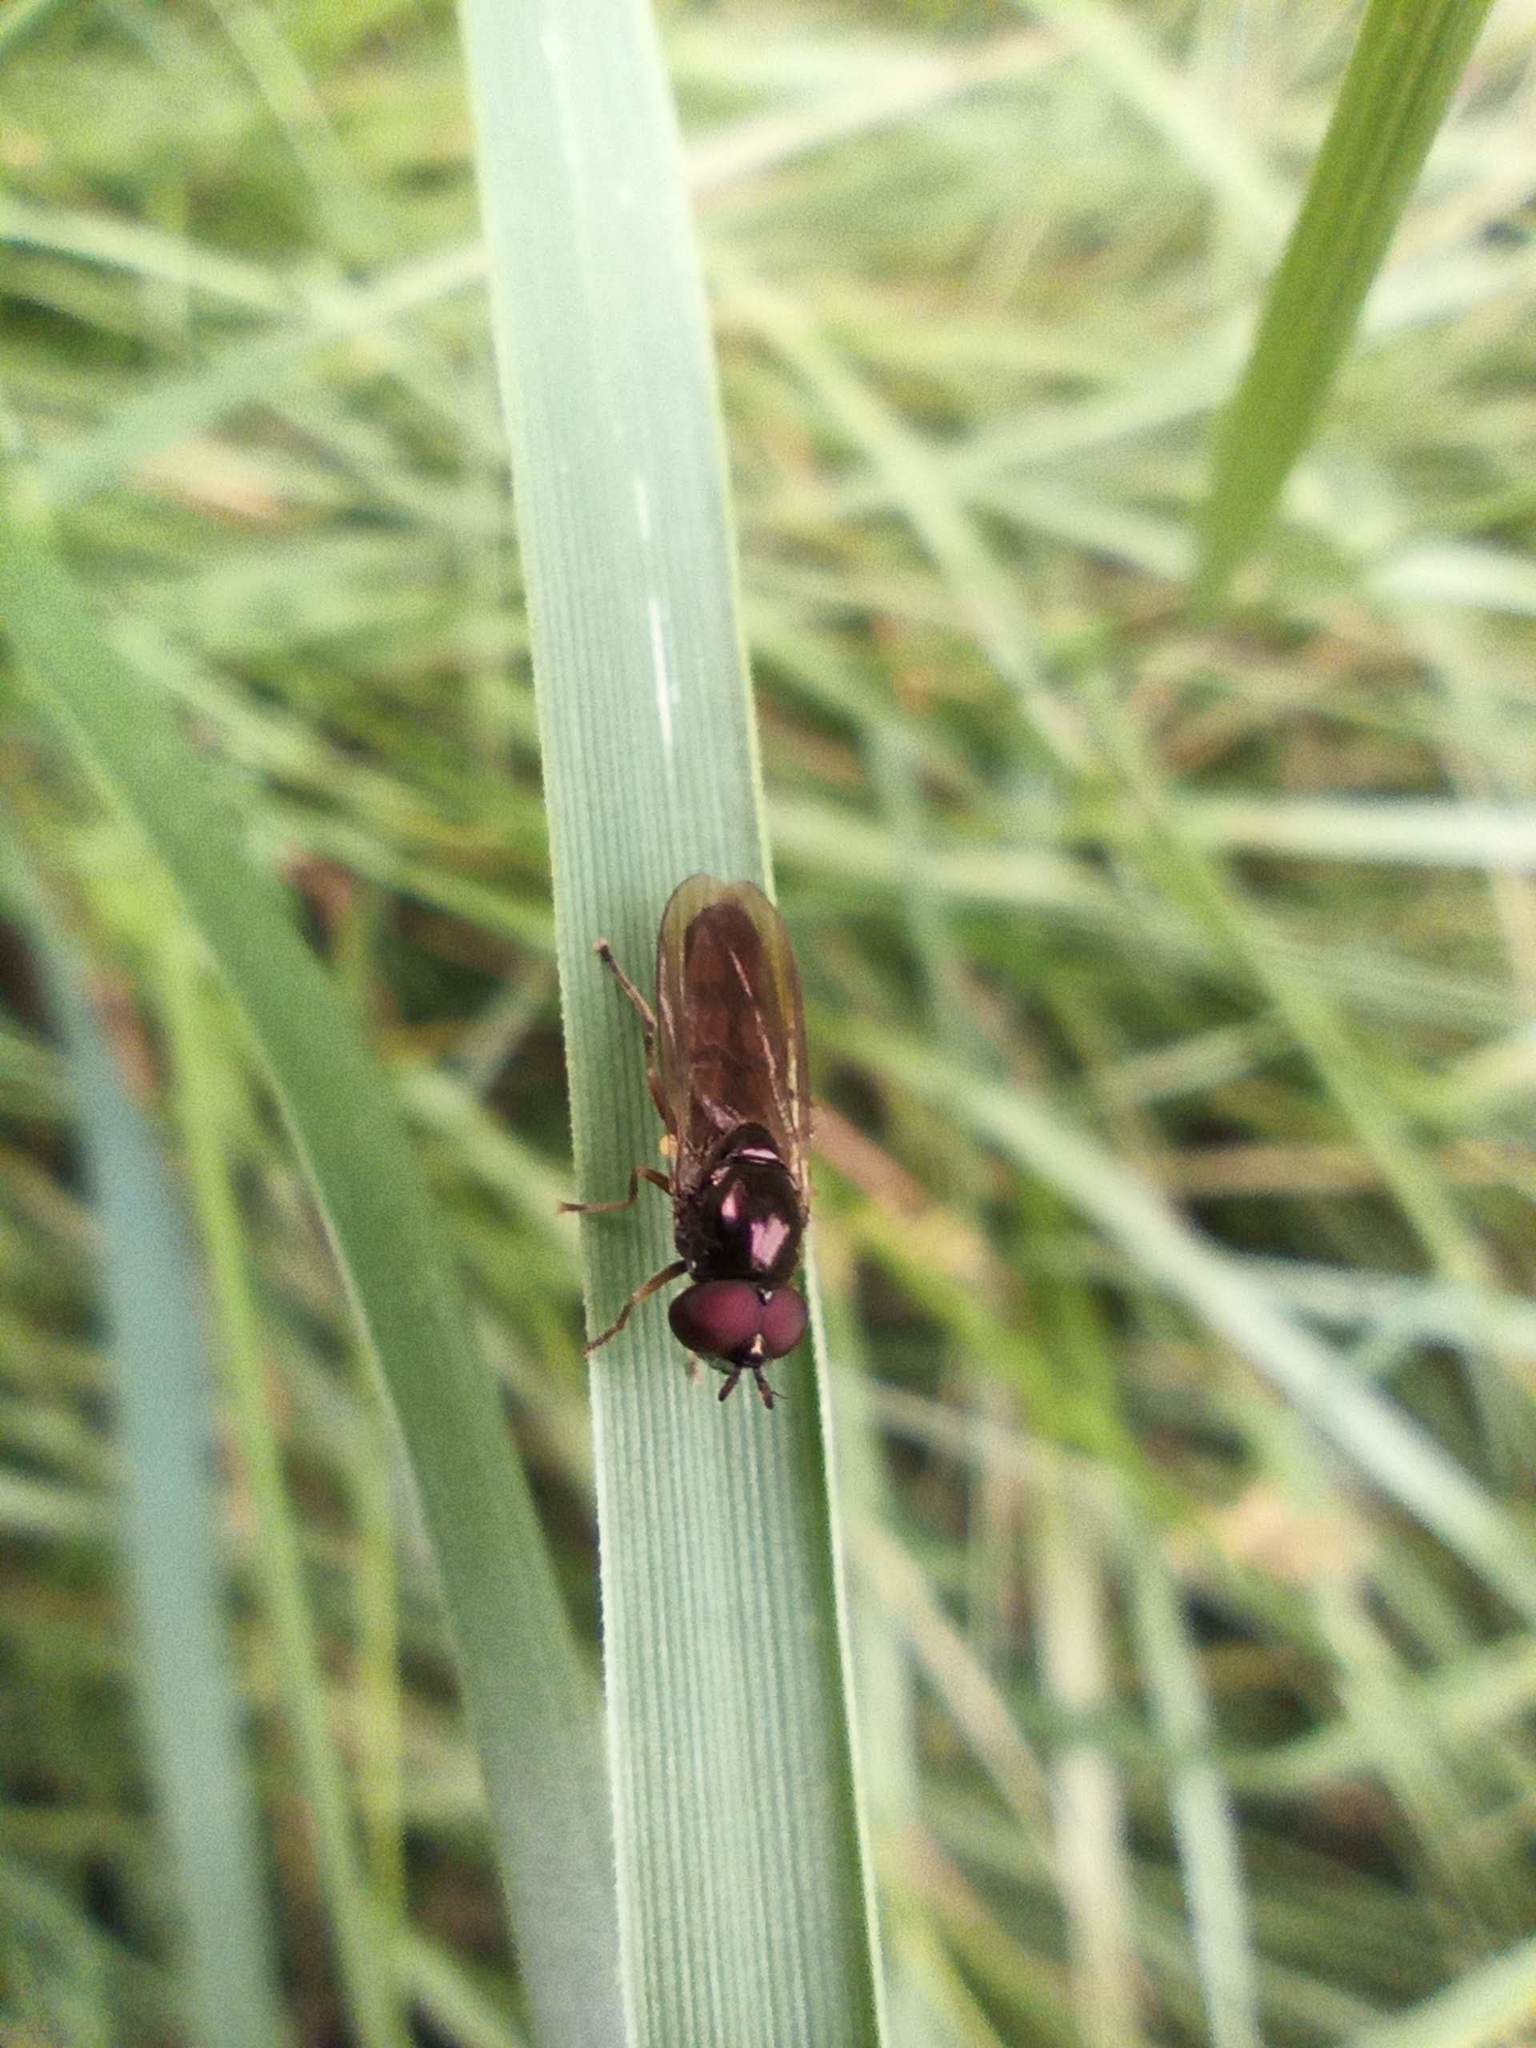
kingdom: Animalia
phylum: Arthropoda
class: Insecta
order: Diptera
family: Syrphidae
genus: Melanostoma
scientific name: Melanostoma mellina
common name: Hover fly
